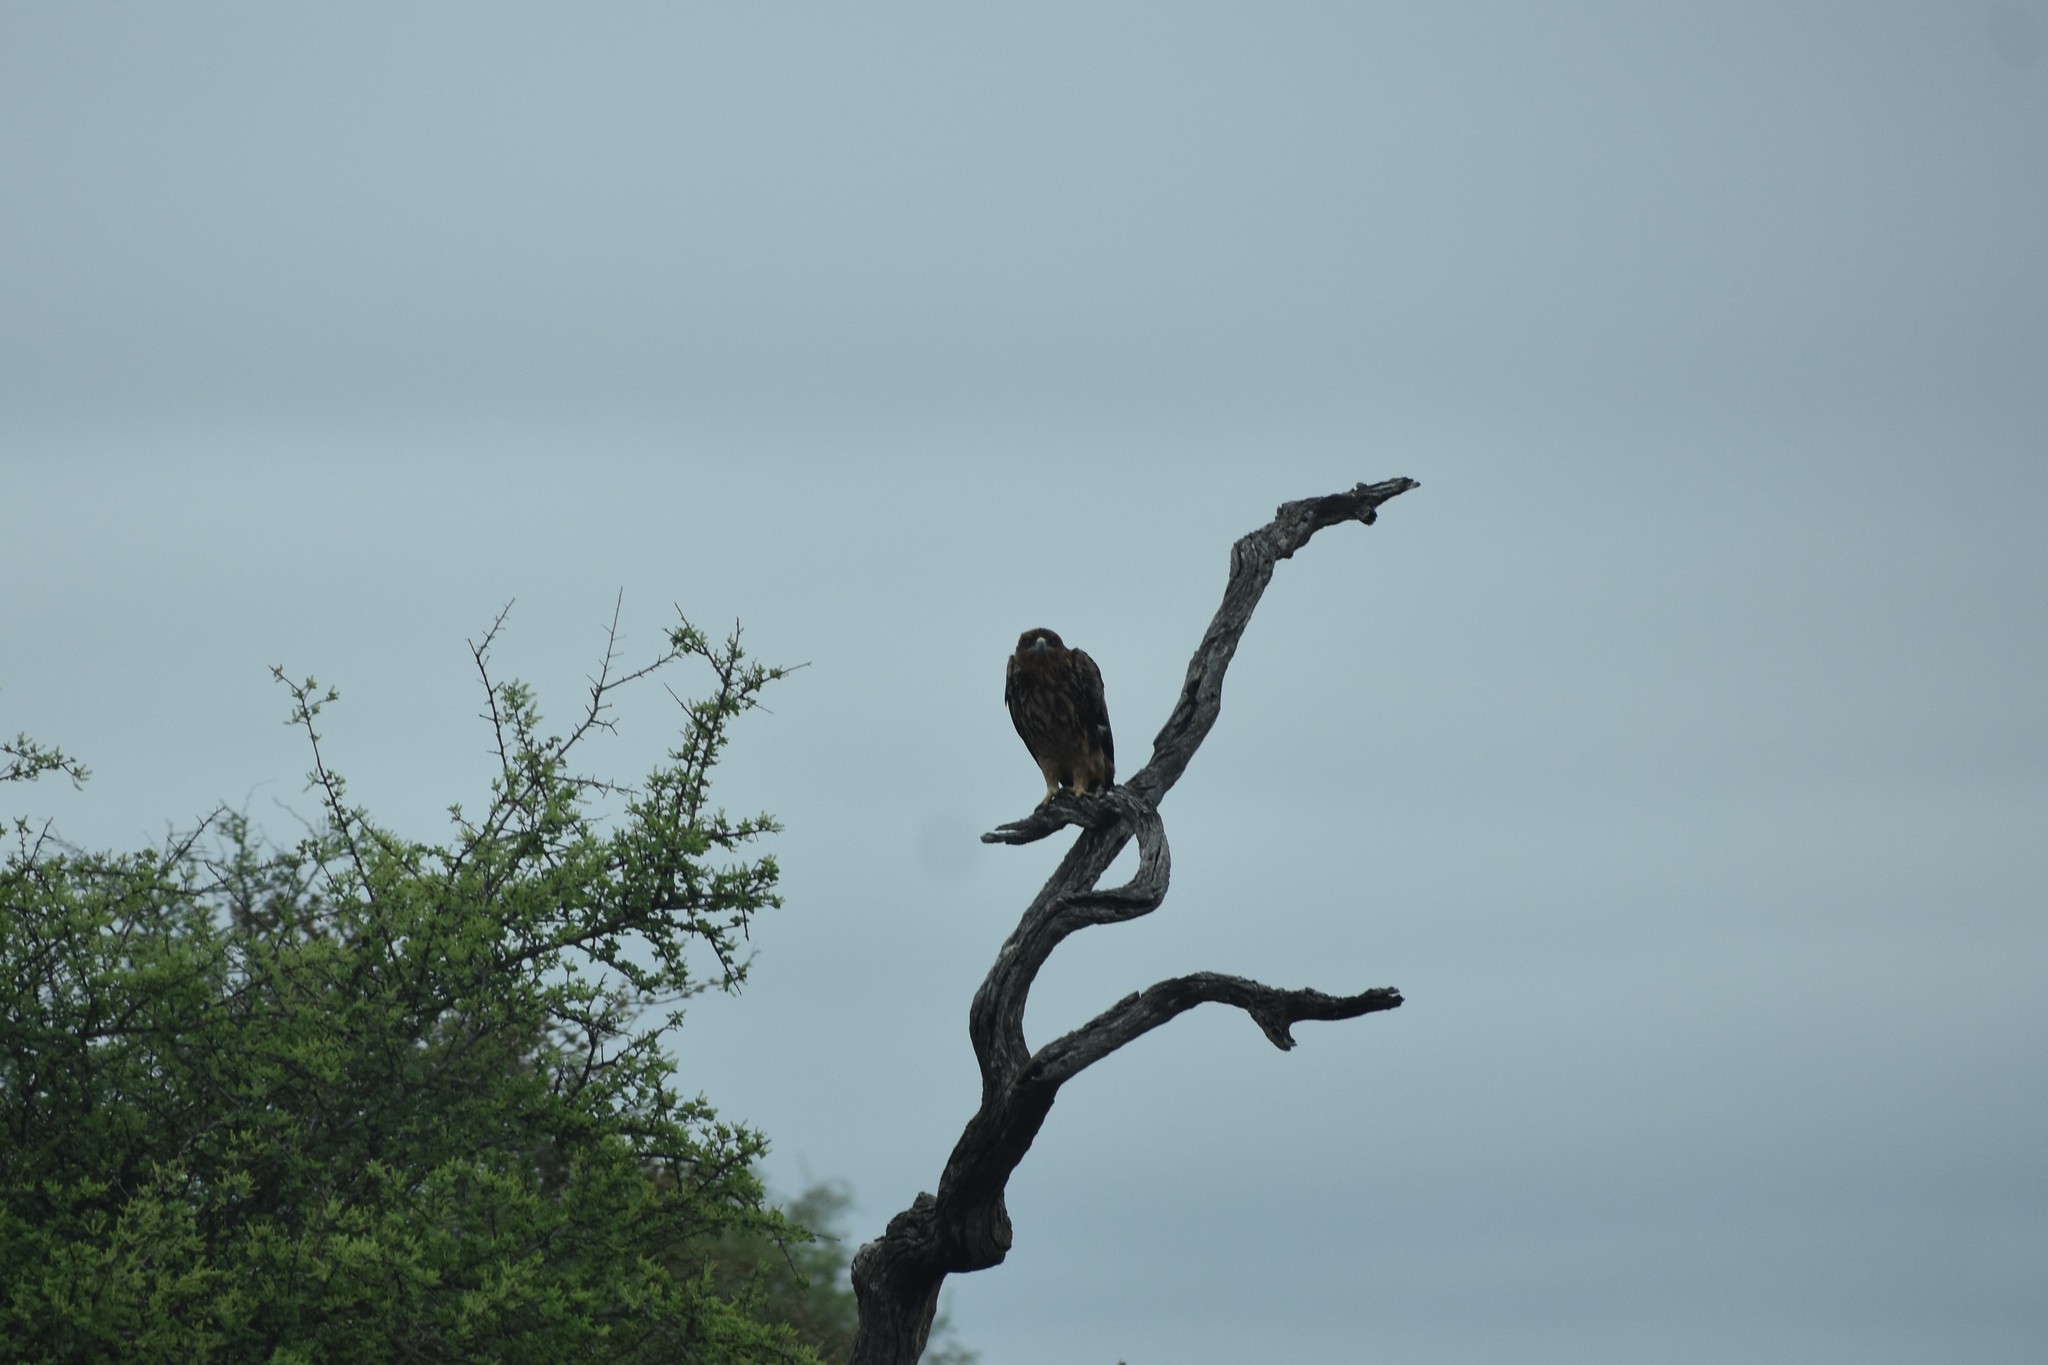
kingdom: Animalia
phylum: Chordata
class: Aves
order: Accipitriformes
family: Accipitridae
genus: Aquila
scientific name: Aquila rapax
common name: Tawny eagle
